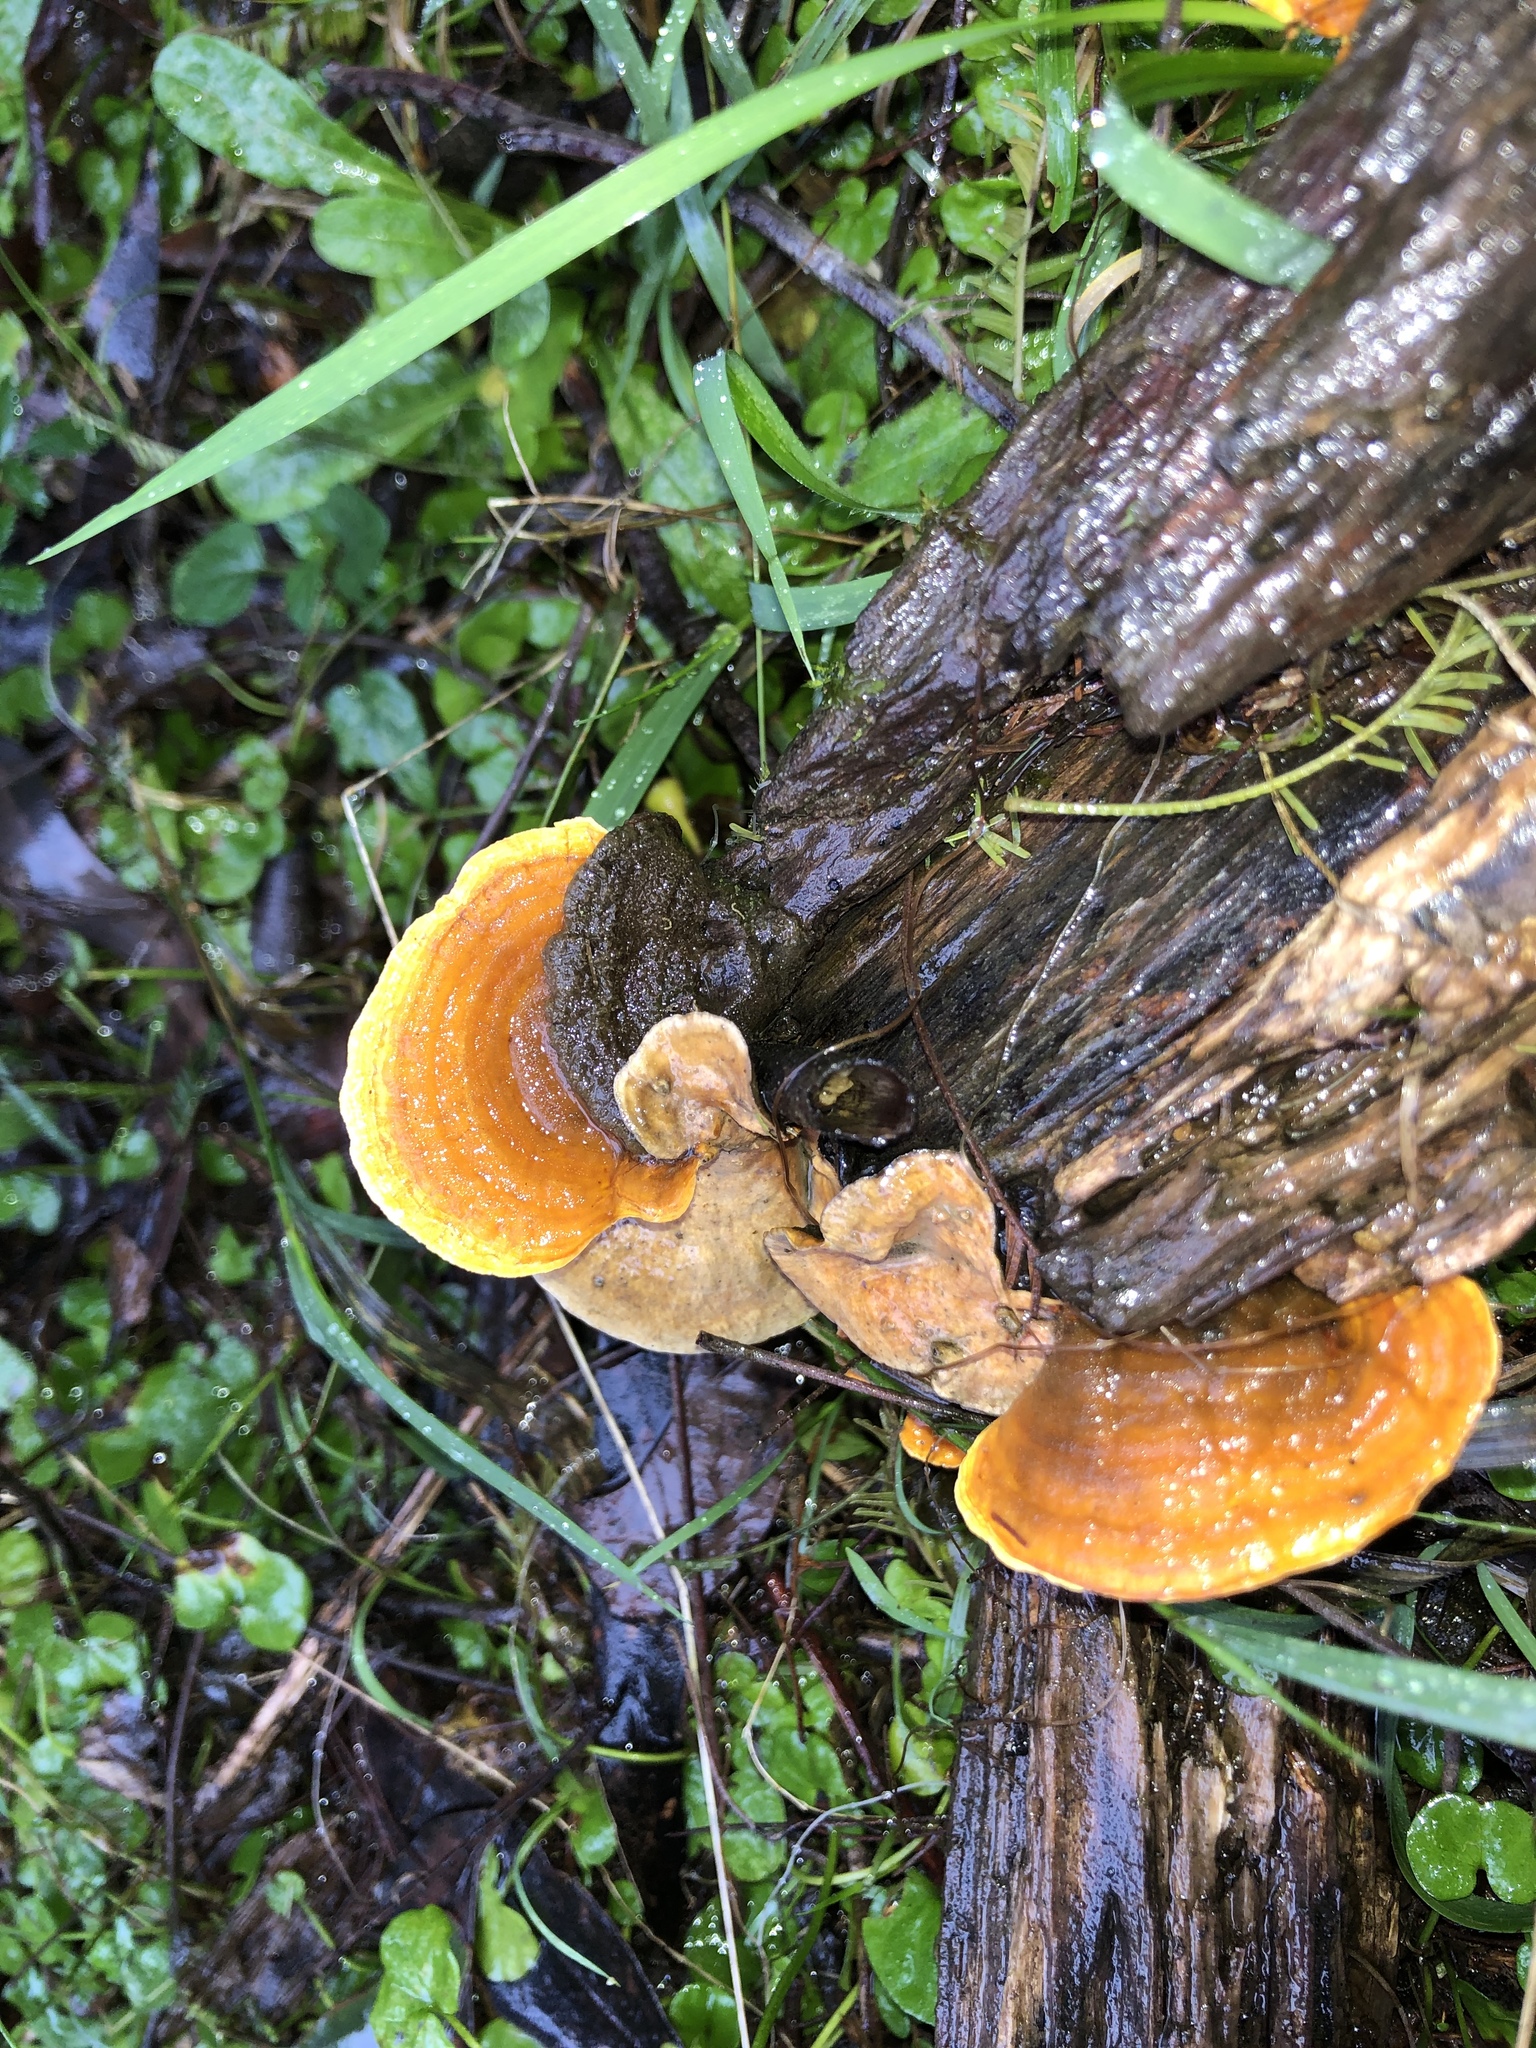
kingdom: Fungi
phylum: Basidiomycota
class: Agaricomycetes
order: Russulales
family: Stereaceae
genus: Stereum
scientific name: Stereum versicolor
